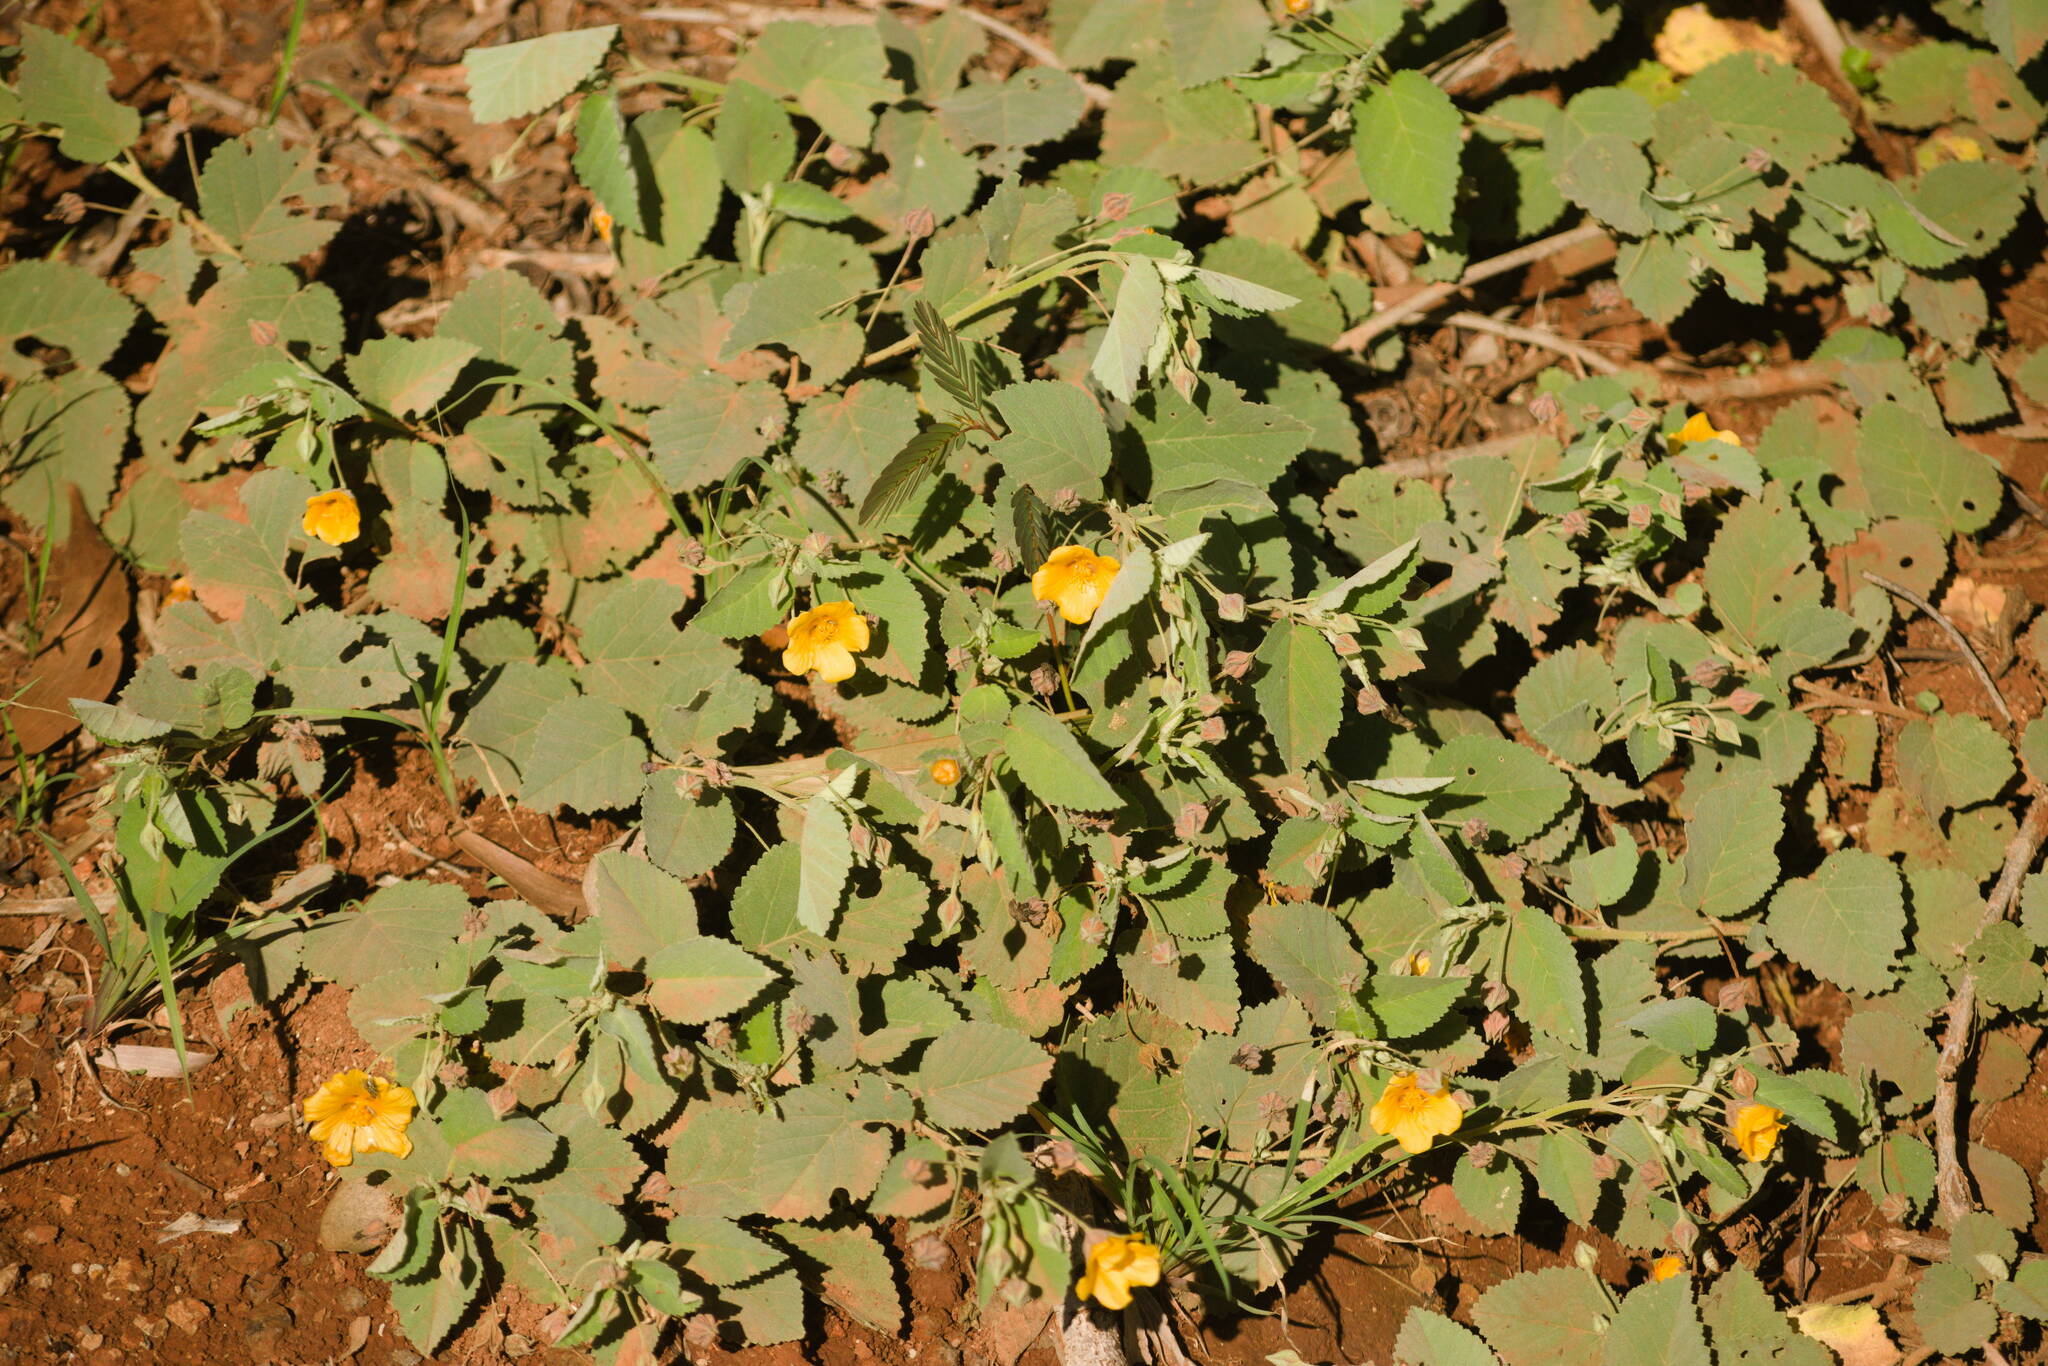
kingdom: Plantae
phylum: Tracheophyta
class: Magnoliopsida
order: Malvales
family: Malvaceae
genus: Sida
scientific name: Sida fallax
